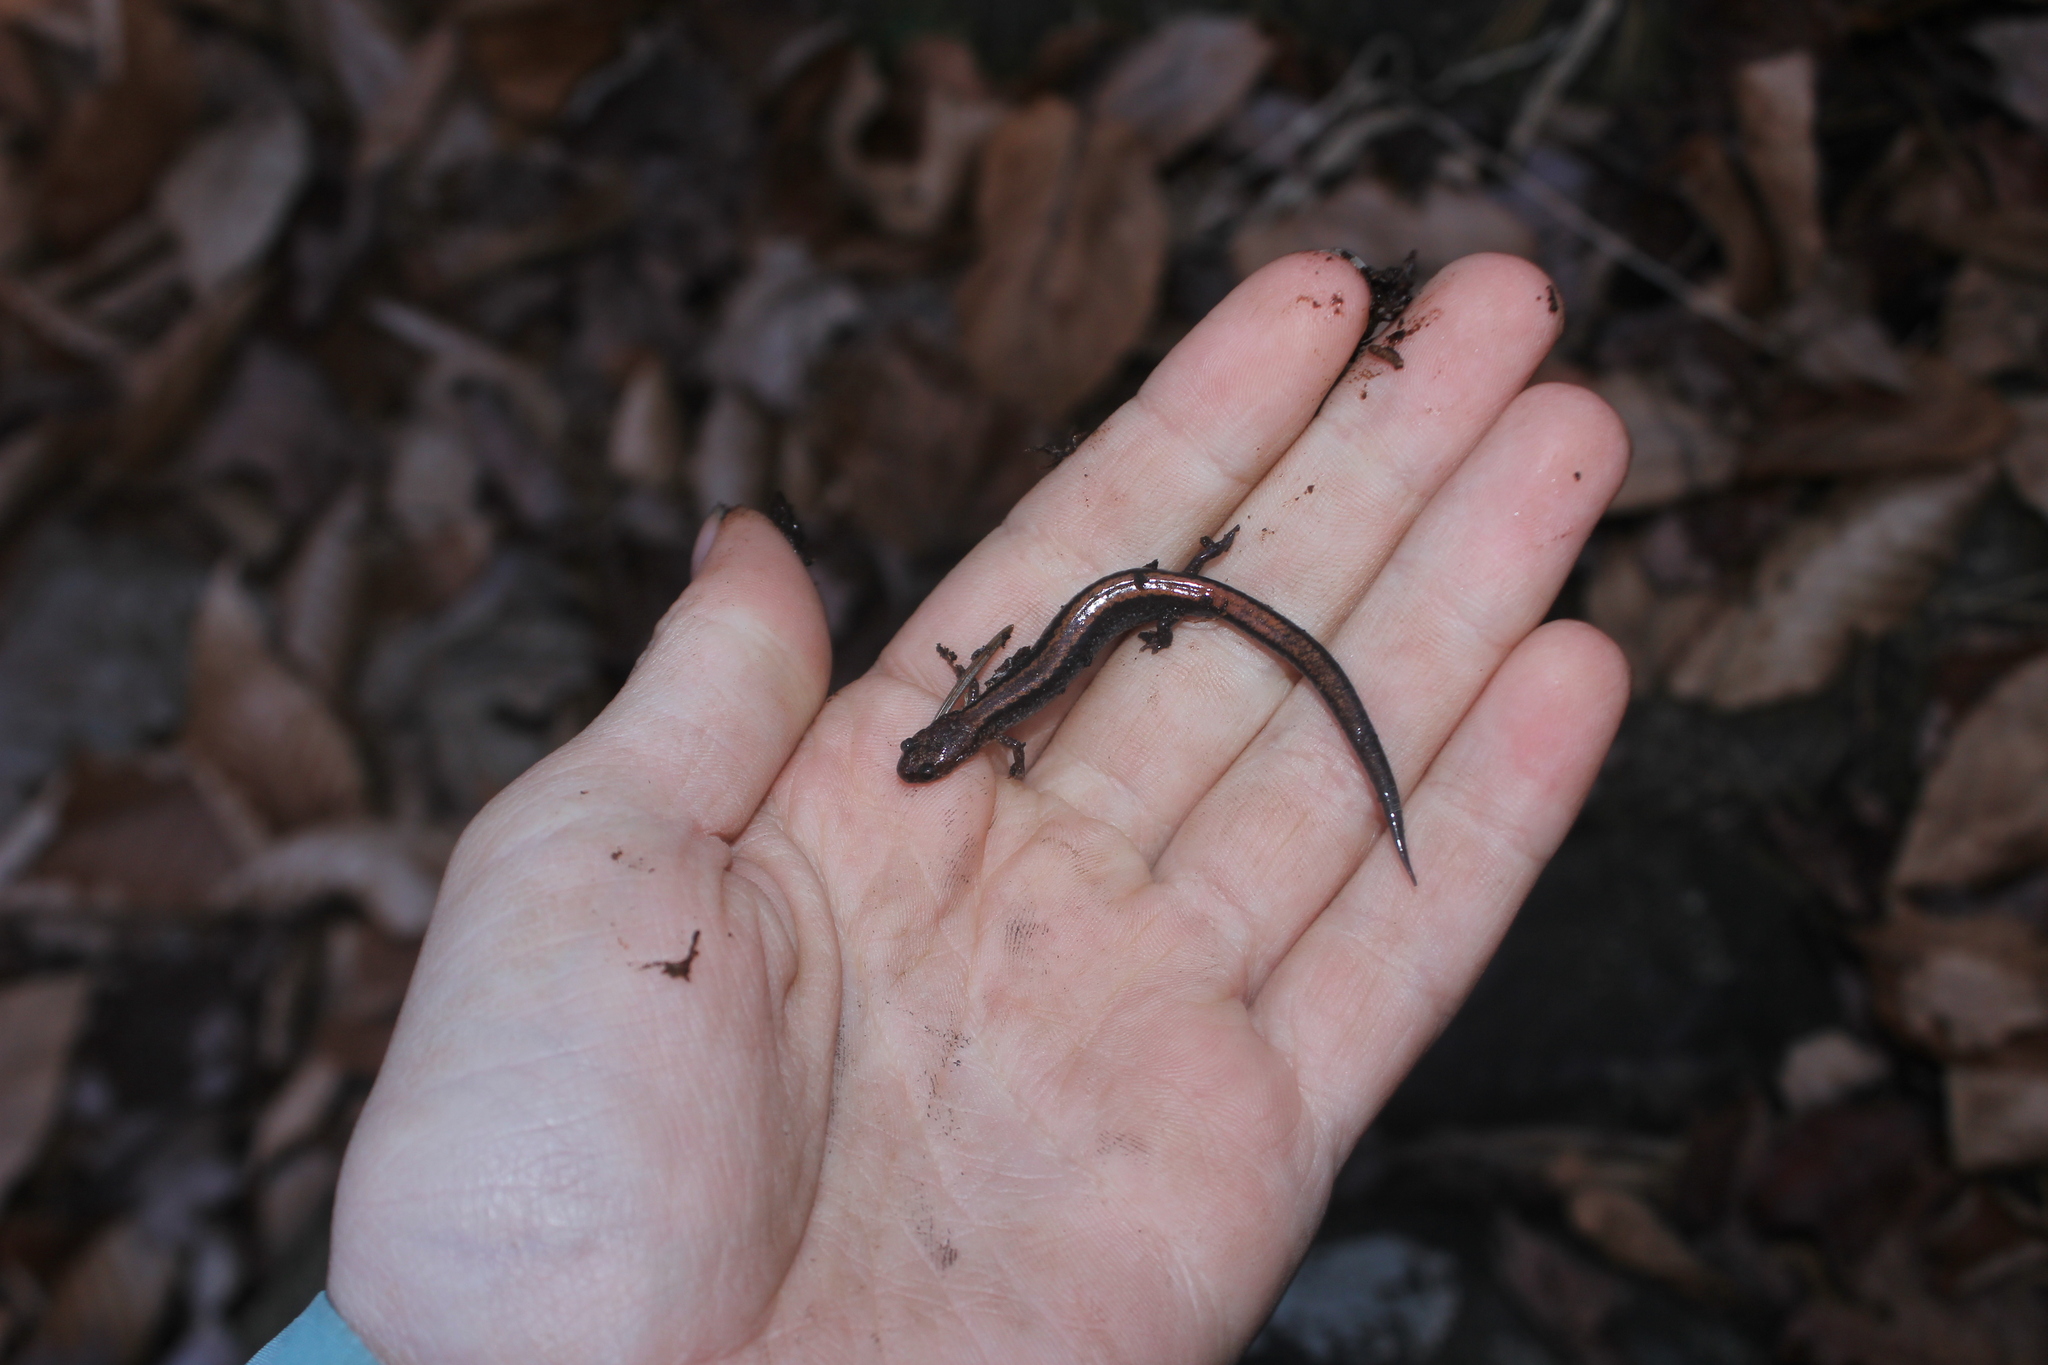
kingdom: Animalia
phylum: Chordata
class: Amphibia
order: Caudata
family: Plethodontidae
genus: Plethodon
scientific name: Plethodon cinereus
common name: Redback salamander
